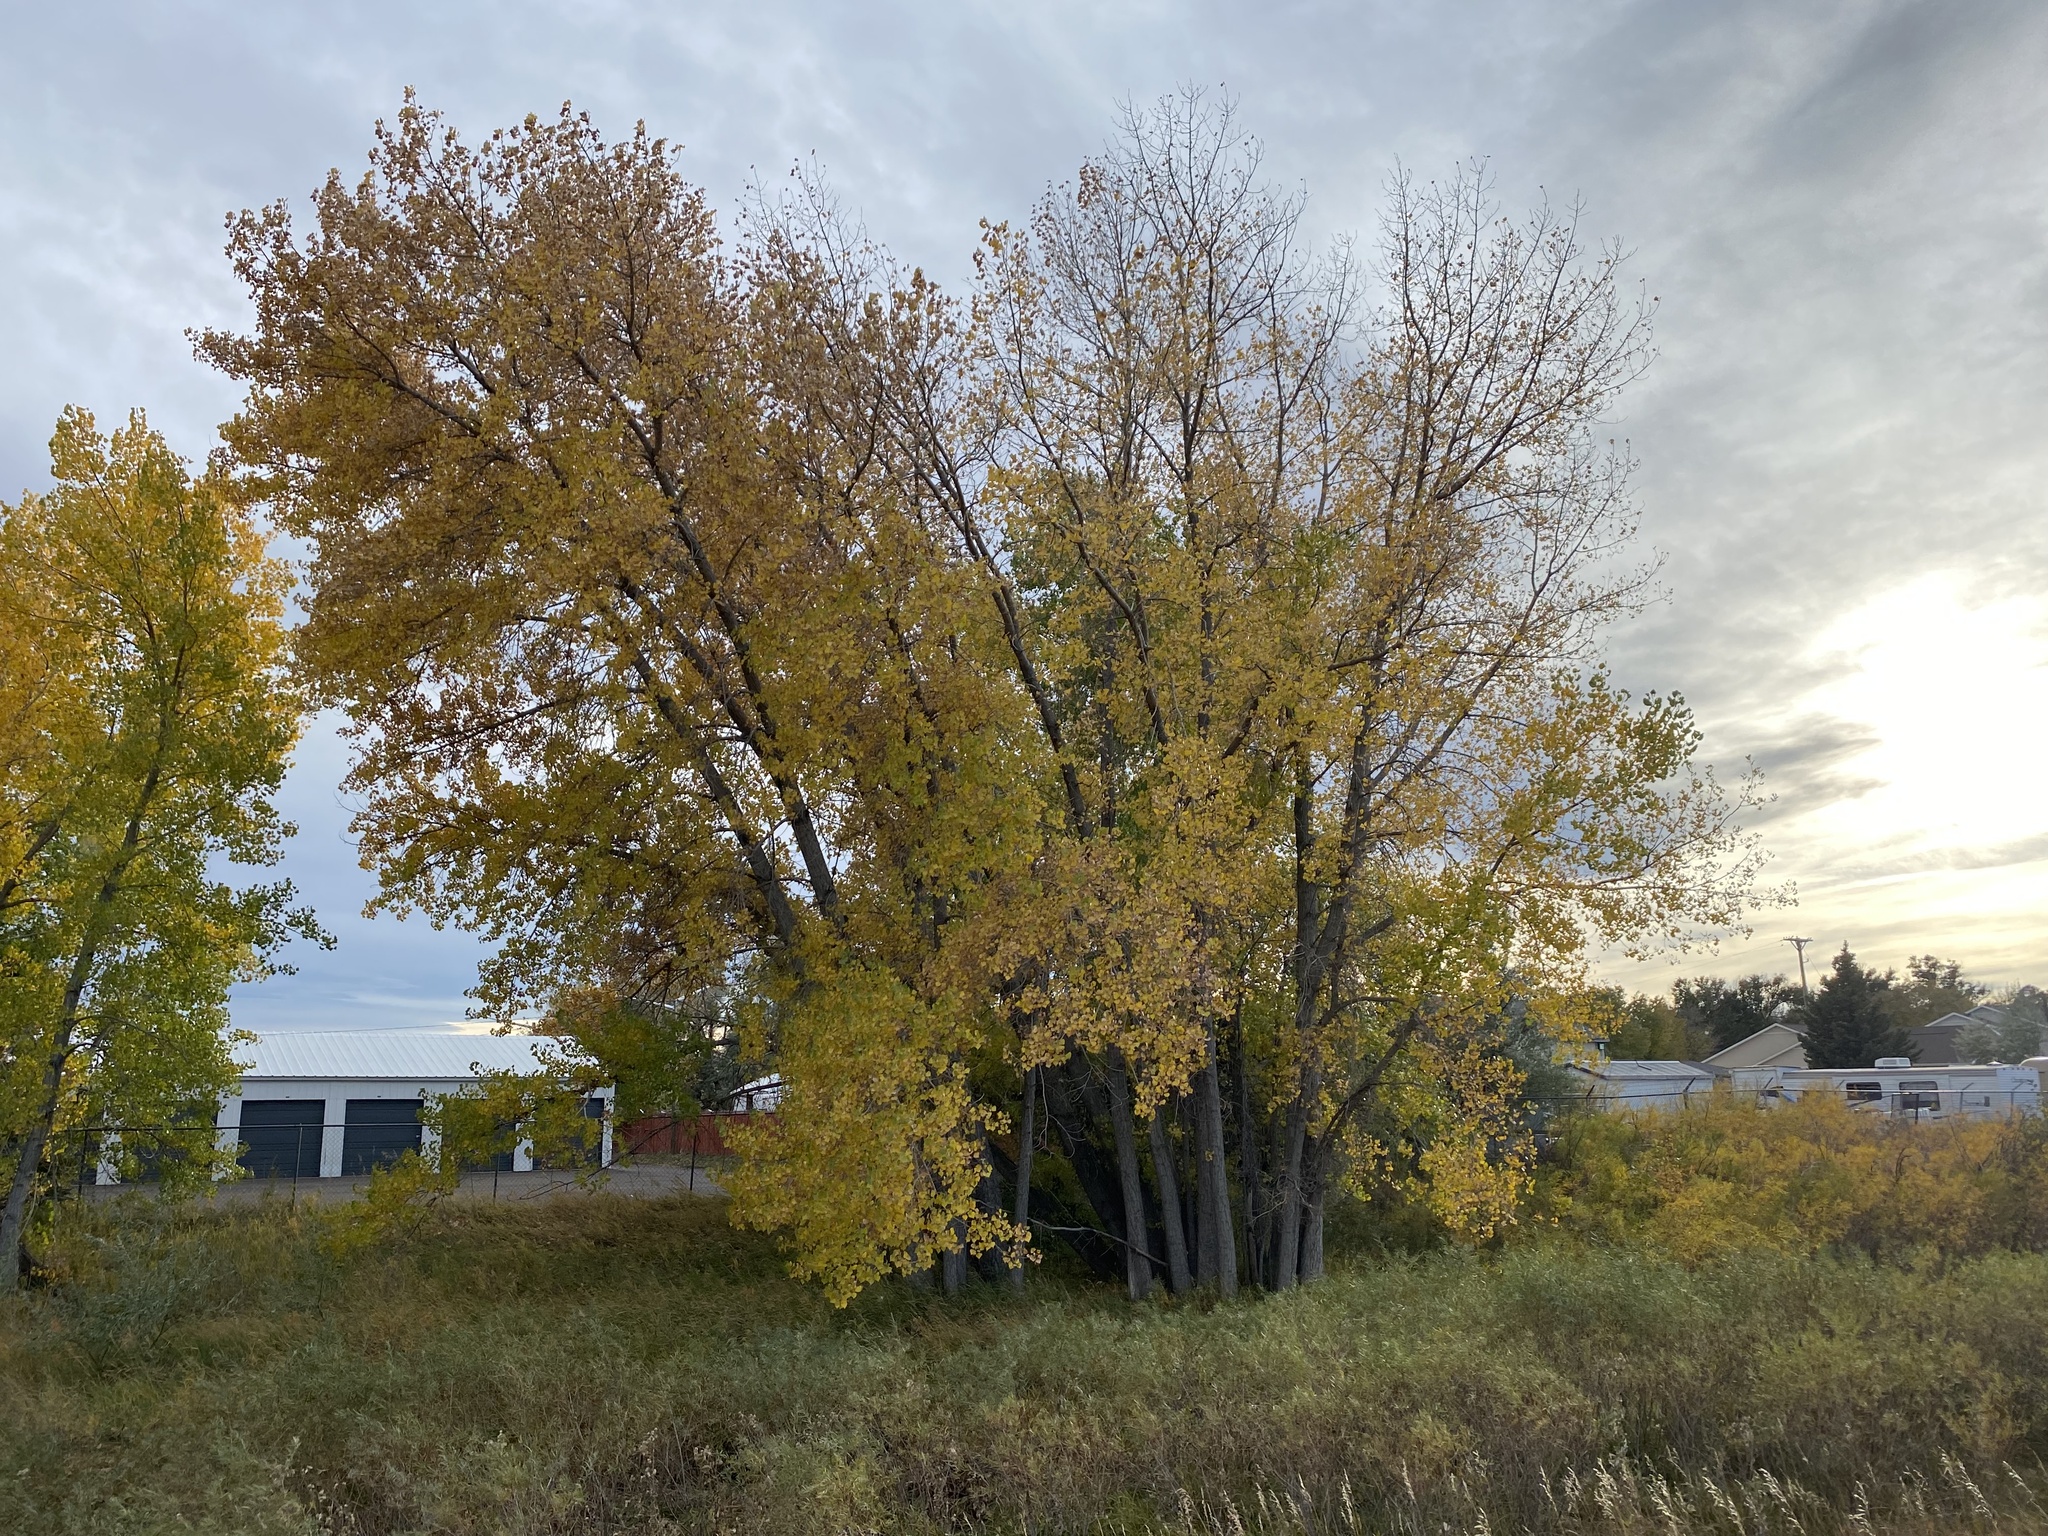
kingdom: Plantae
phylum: Tracheophyta
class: Magnoliopsida
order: Malpighiales
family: Salicaceae
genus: Populus
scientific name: Populus deltoides
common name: Eastern cottonwood
